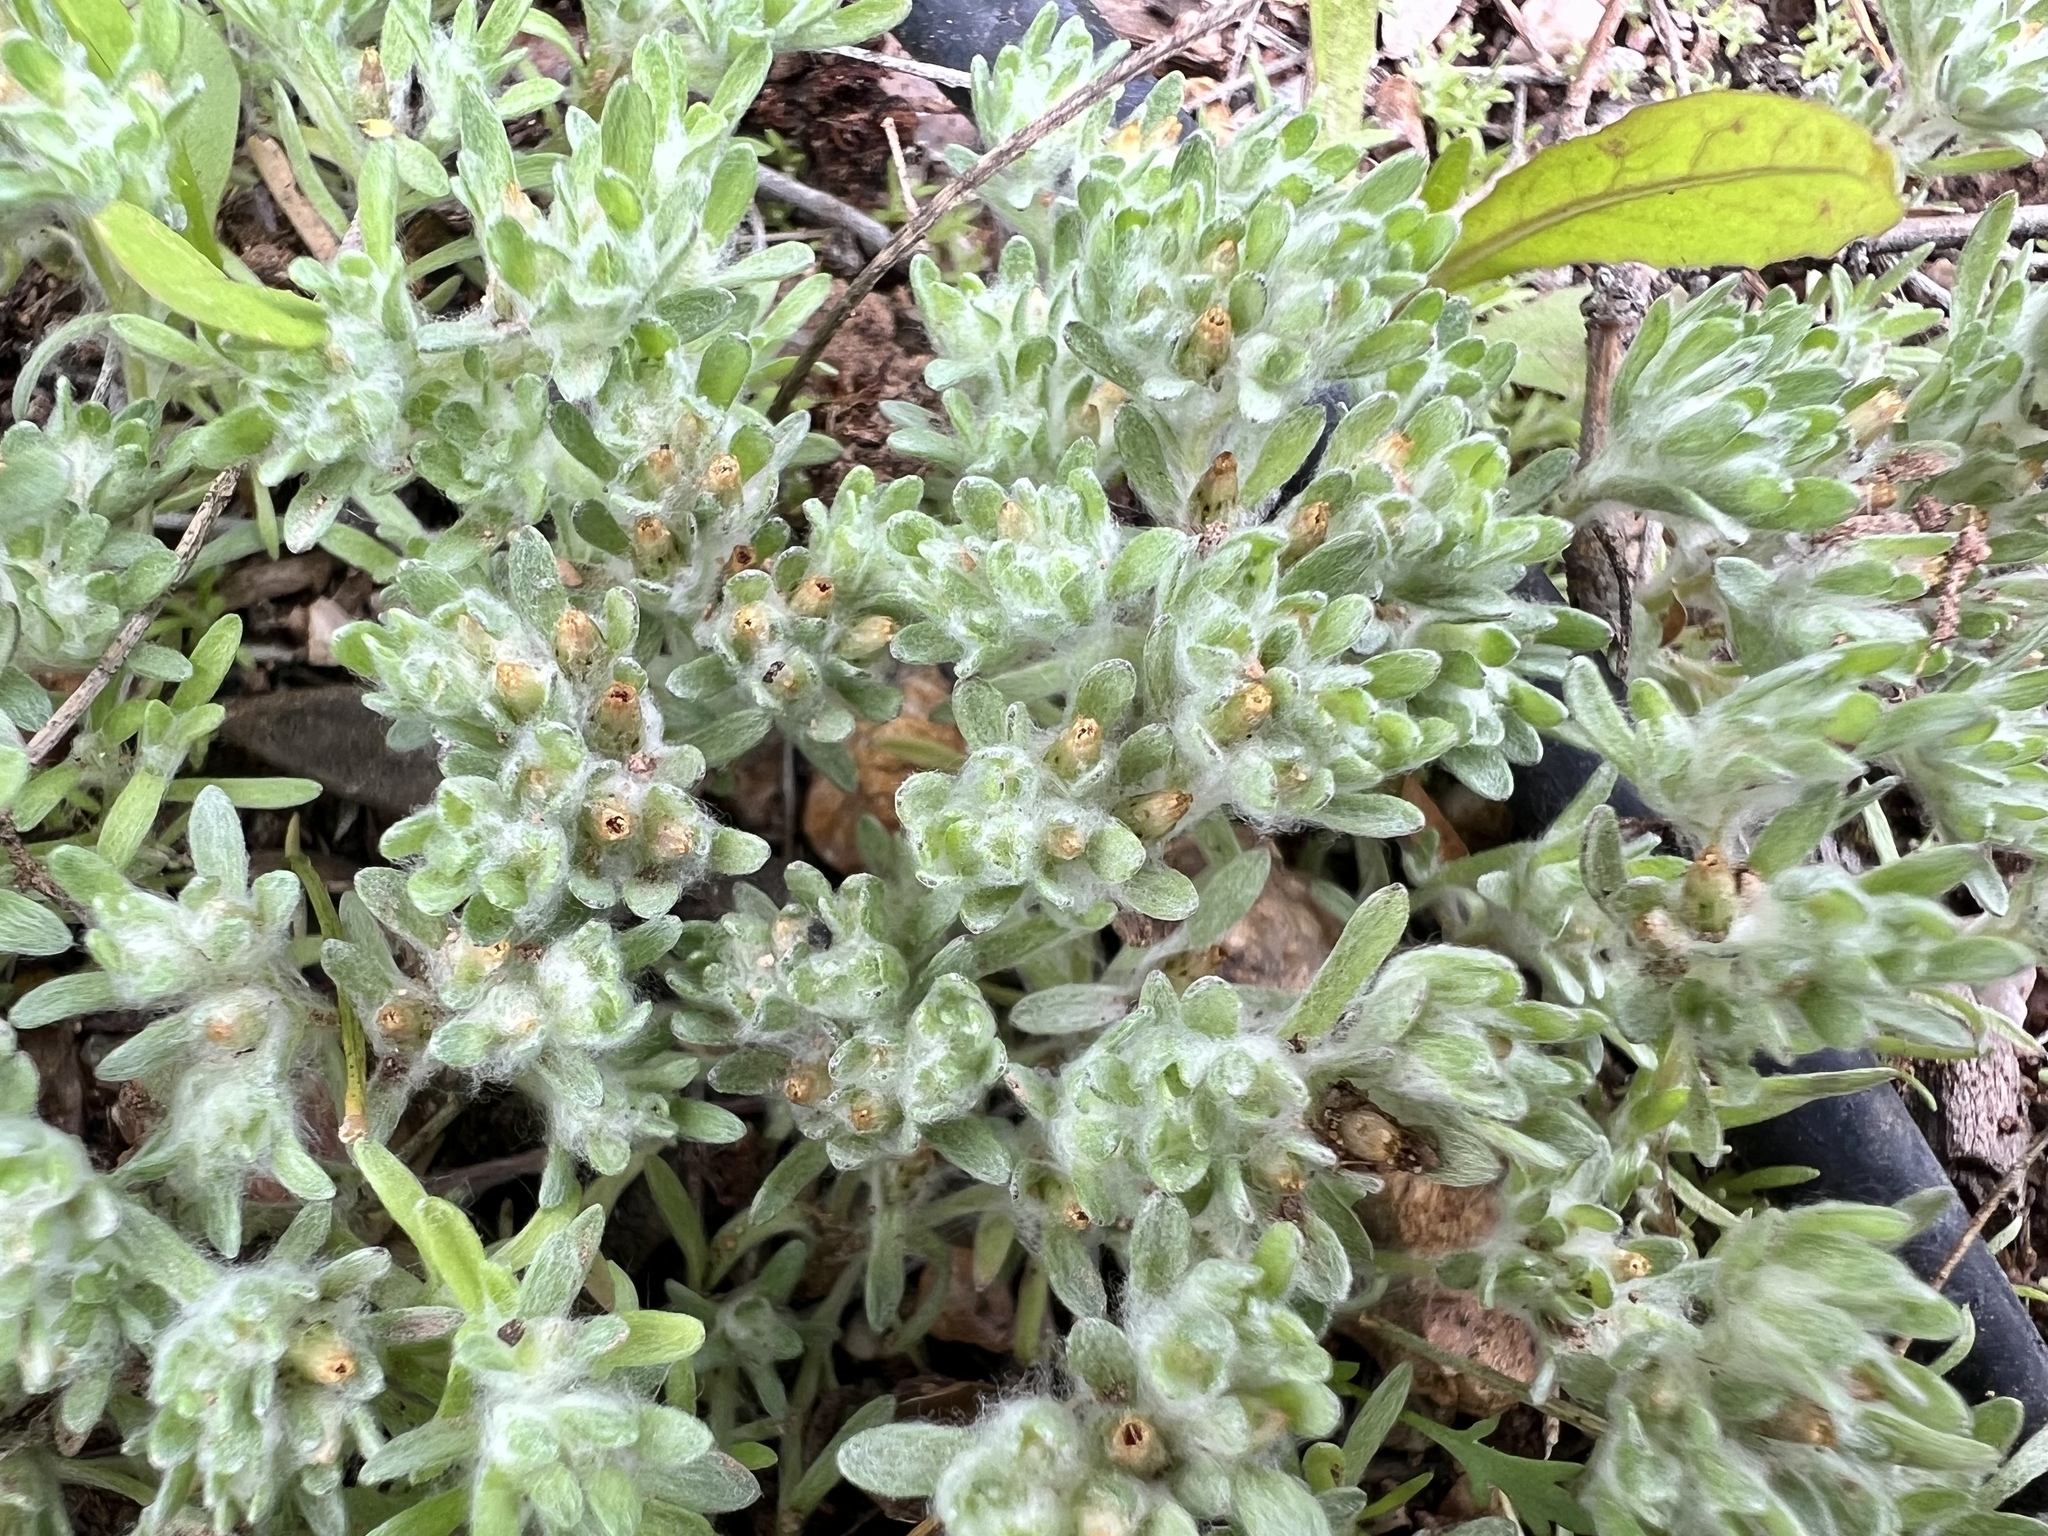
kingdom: Plantae
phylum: Tracheophyta
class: Magnoliopsida
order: Asterales
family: Asteraceae
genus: Lasiopogon
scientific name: Lasiopogon glomerulatus
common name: Green cat thorn
